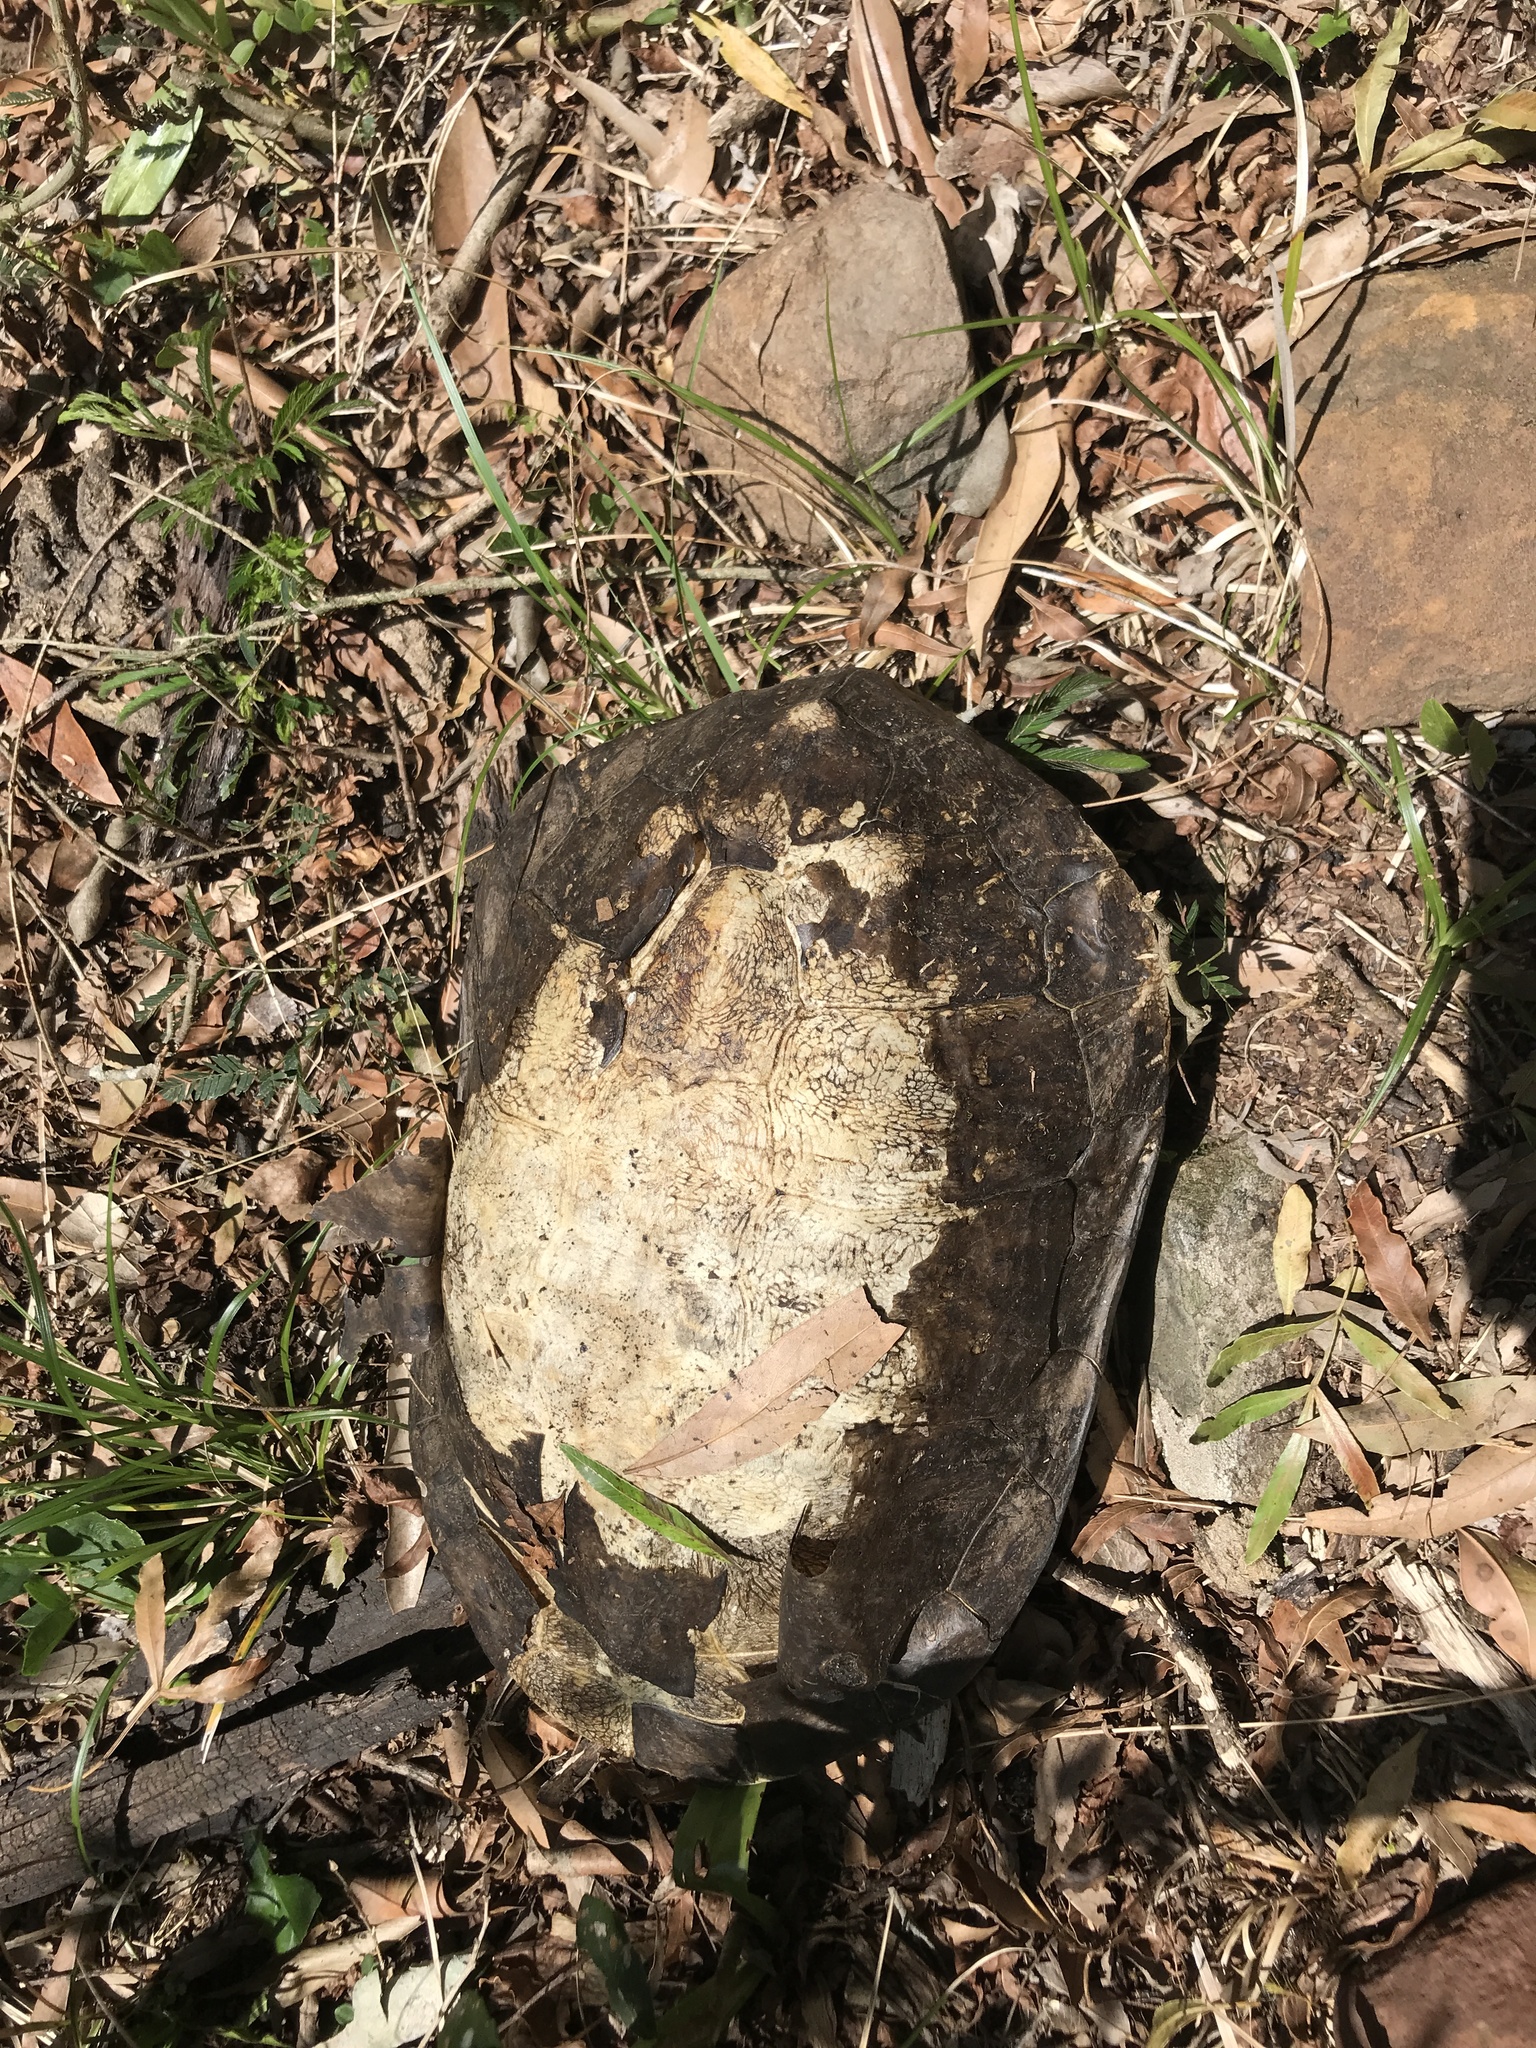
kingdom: Animalia
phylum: Chordata
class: Testudines
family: Chelidae
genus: Hydromedusa
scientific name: Hydromedusa tectifera
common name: Argentine snake-necked turtle
